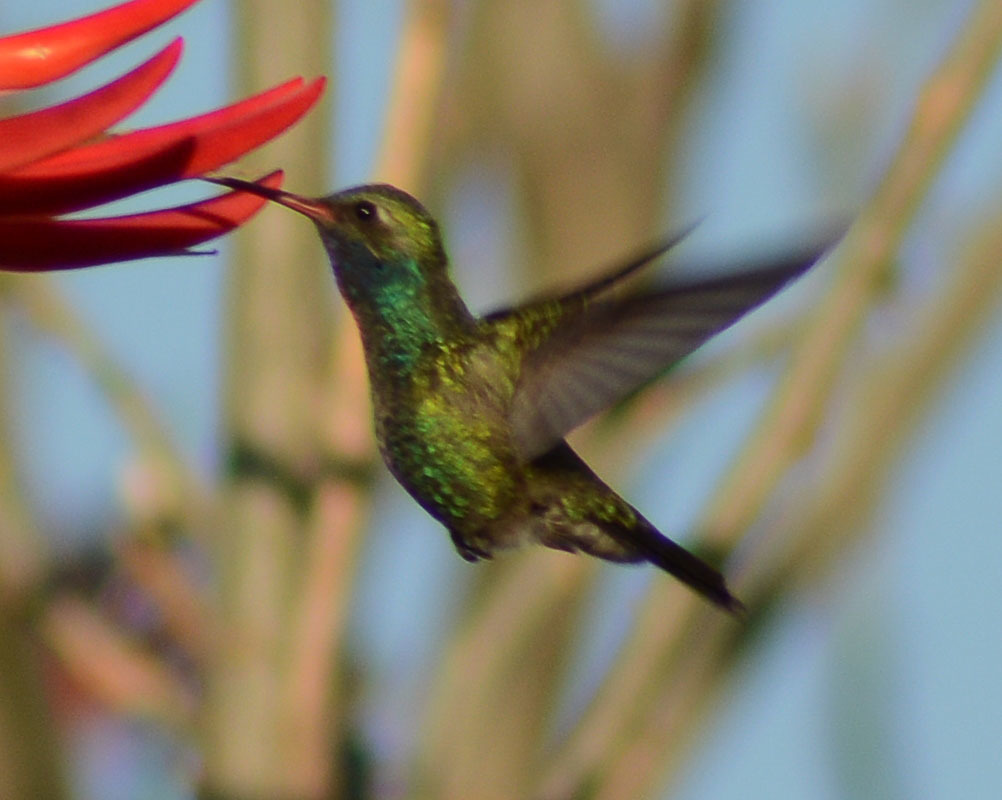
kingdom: Animalia
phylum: Chordata
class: Aves
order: Apodiformes
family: Trochilidae
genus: Cynanthus
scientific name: Cynanthus latirostris
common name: Broad-billed hummingbird
